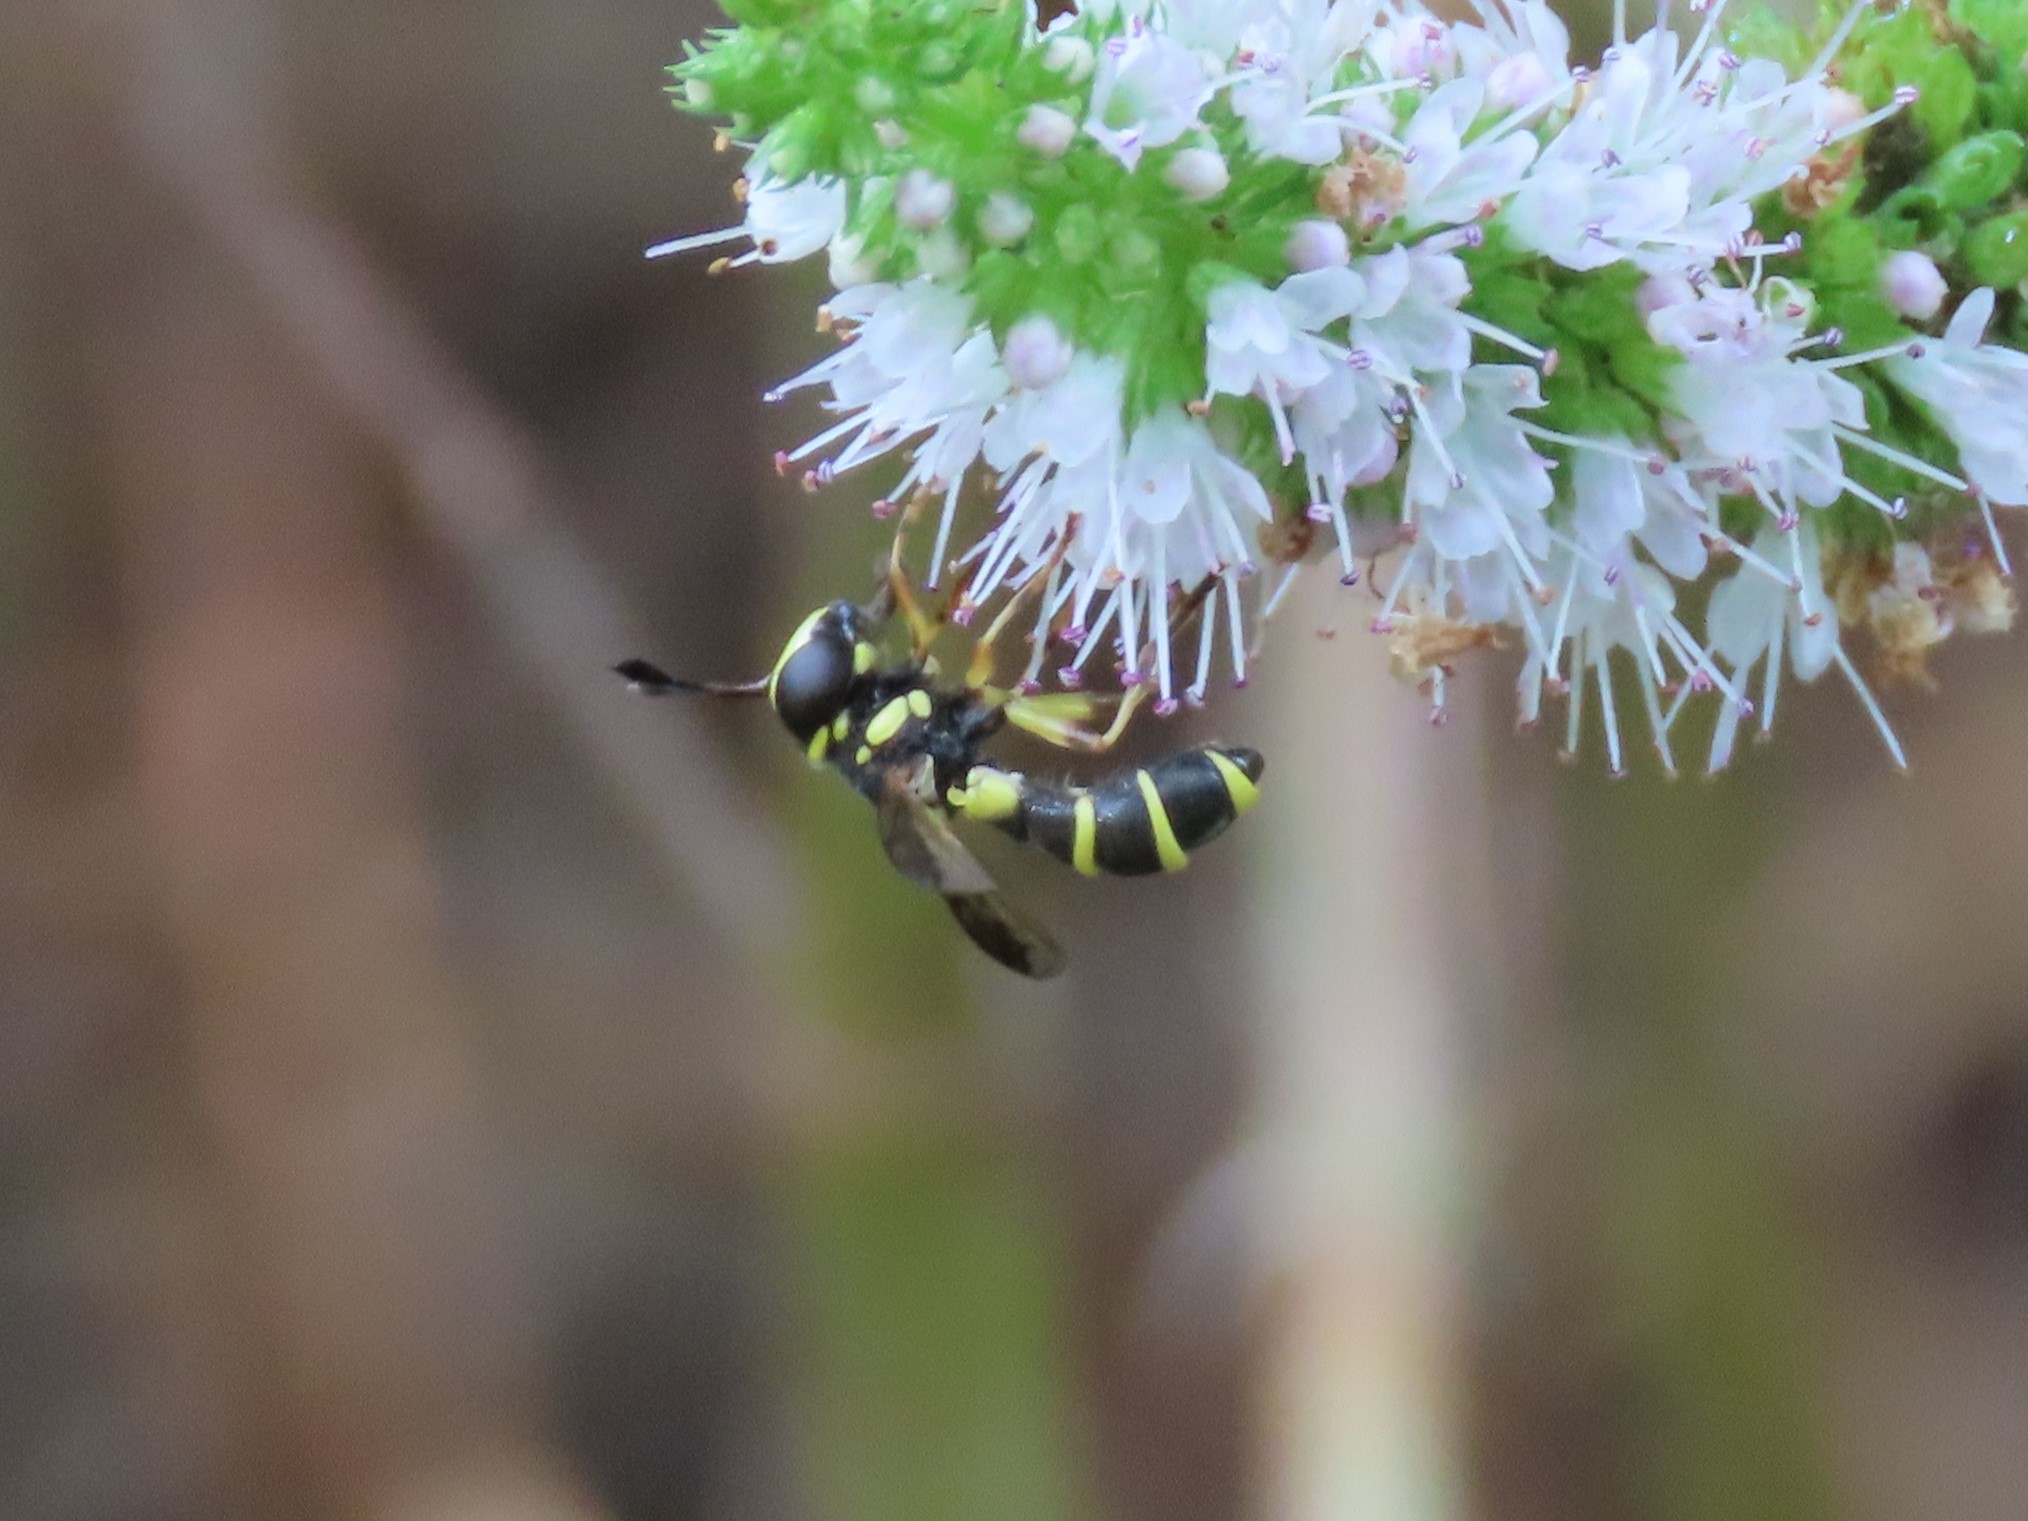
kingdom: Animalia
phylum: Arthropoda
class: Insecta
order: Diptera
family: Syrphidae
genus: Ceriana
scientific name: Ceriana vespiformis
